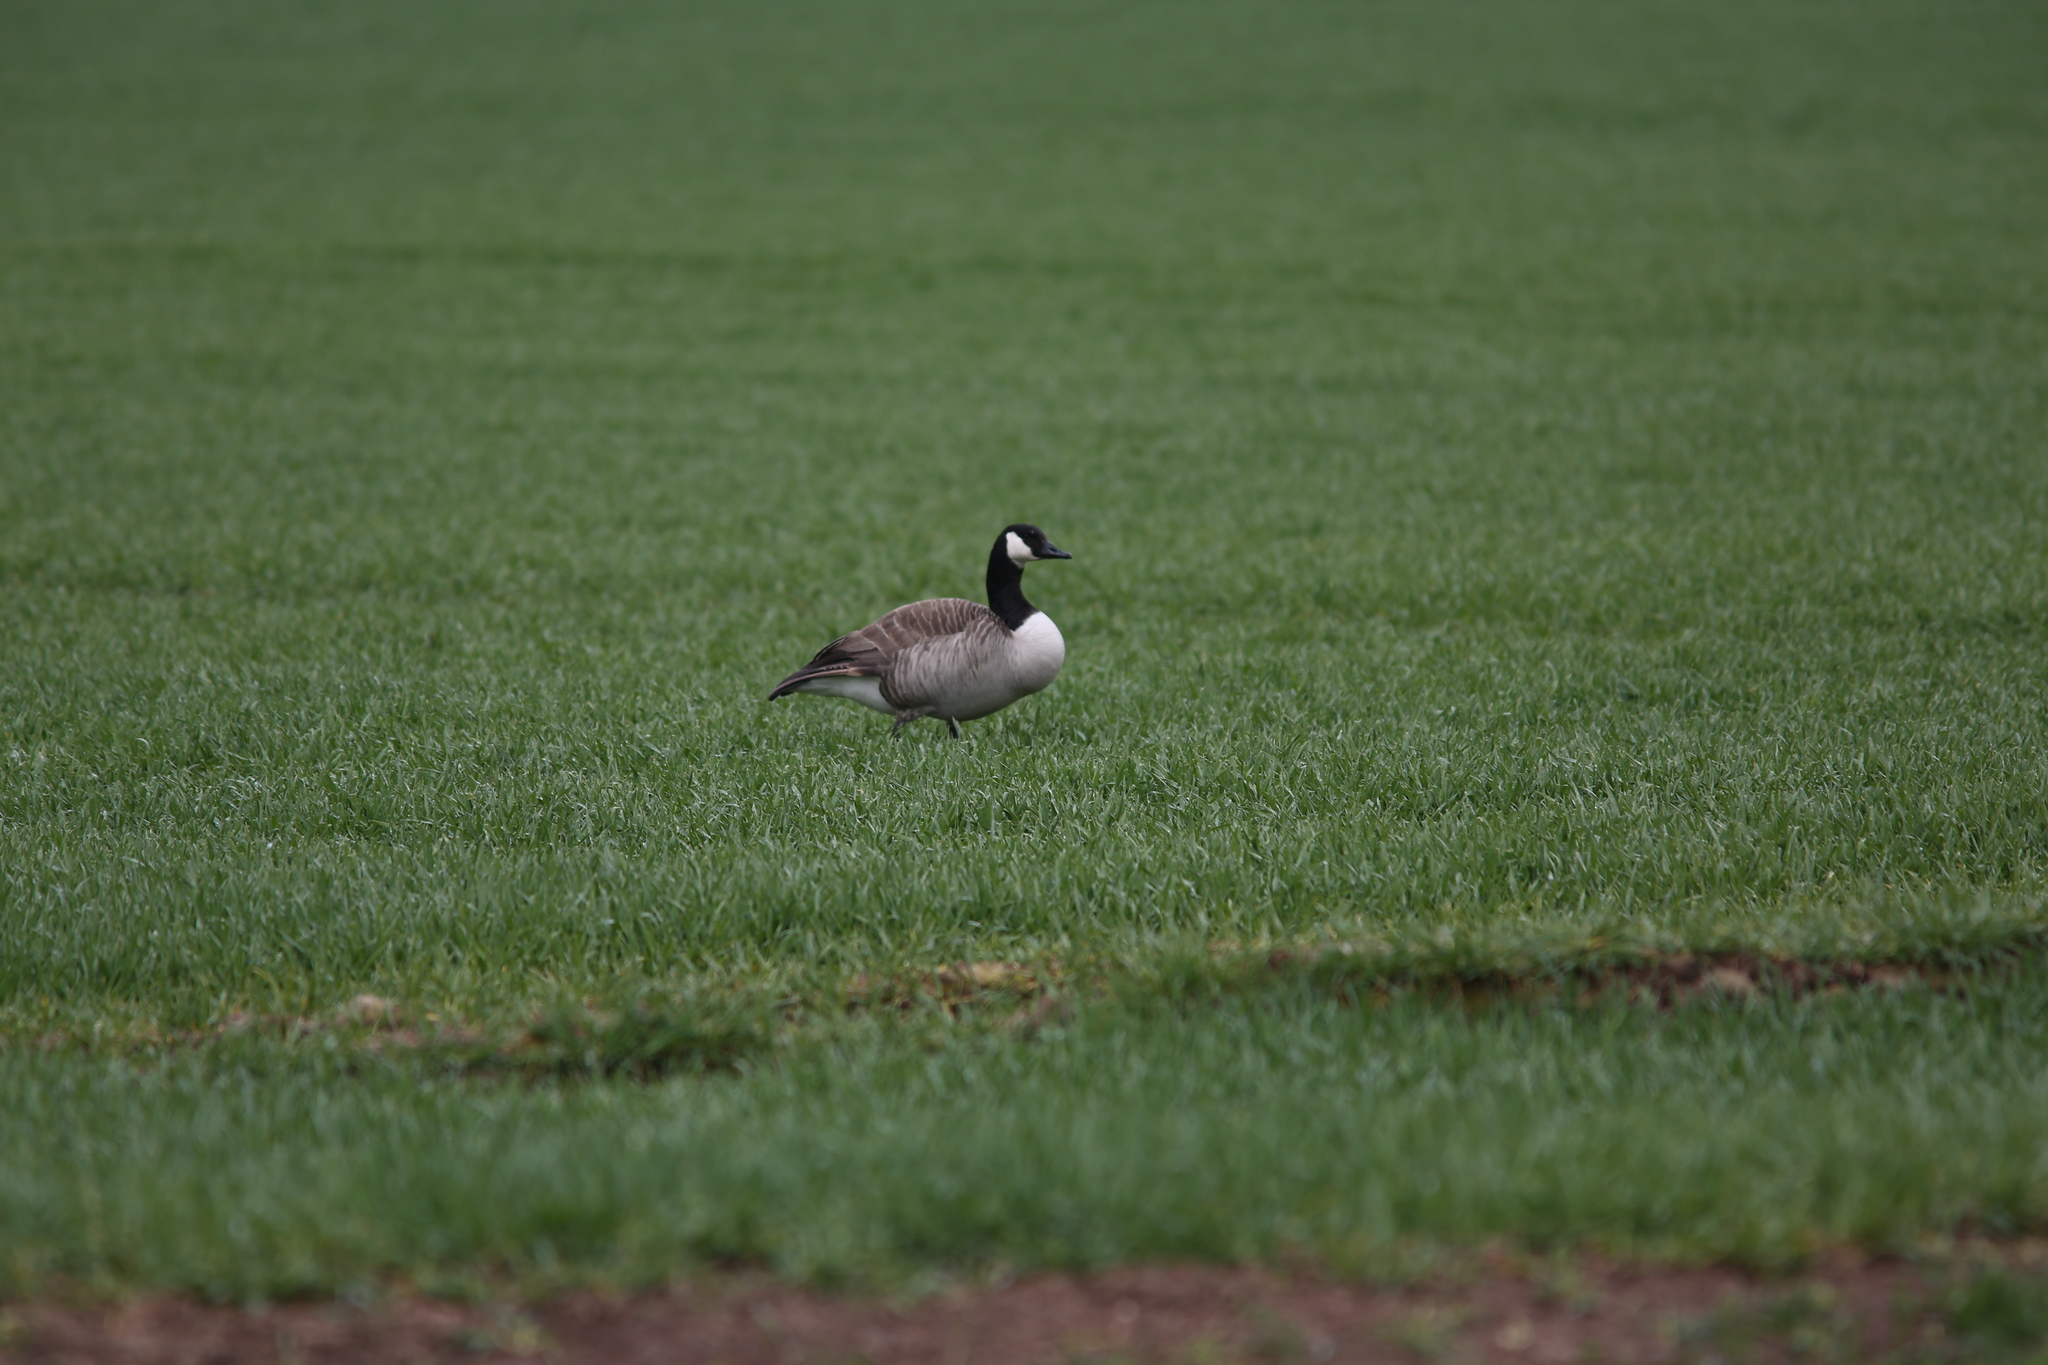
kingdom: Animalia
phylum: Chordata
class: Aves
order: Anseriformes
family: Anatidae
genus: Branta
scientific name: Branta canadensis
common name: Canada goose
